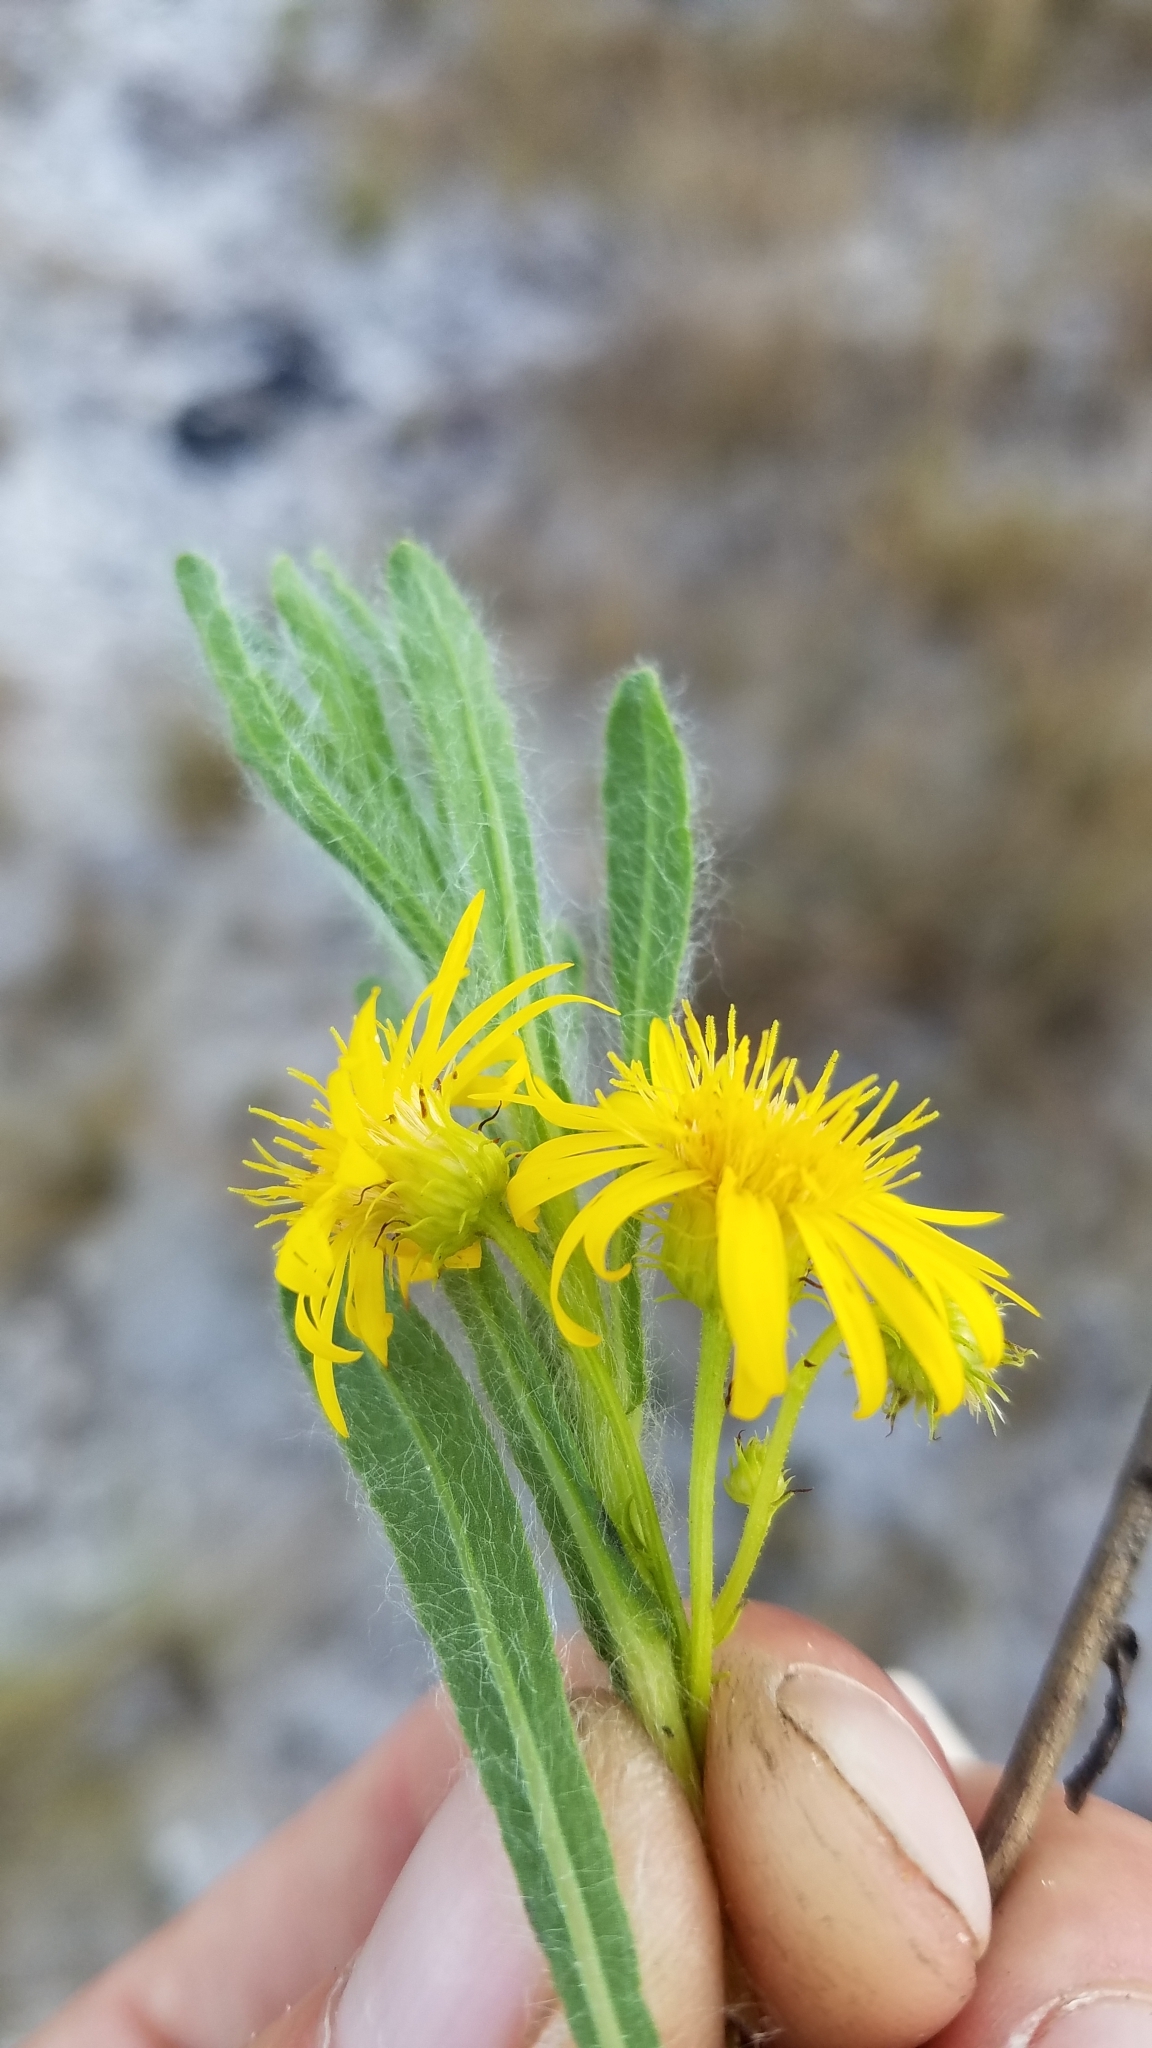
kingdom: Plantae
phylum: Tracheophyta
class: Magnoliopsida
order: Asterales
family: Asteraceae
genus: Chrysopsis
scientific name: Chrysopsis subulata
